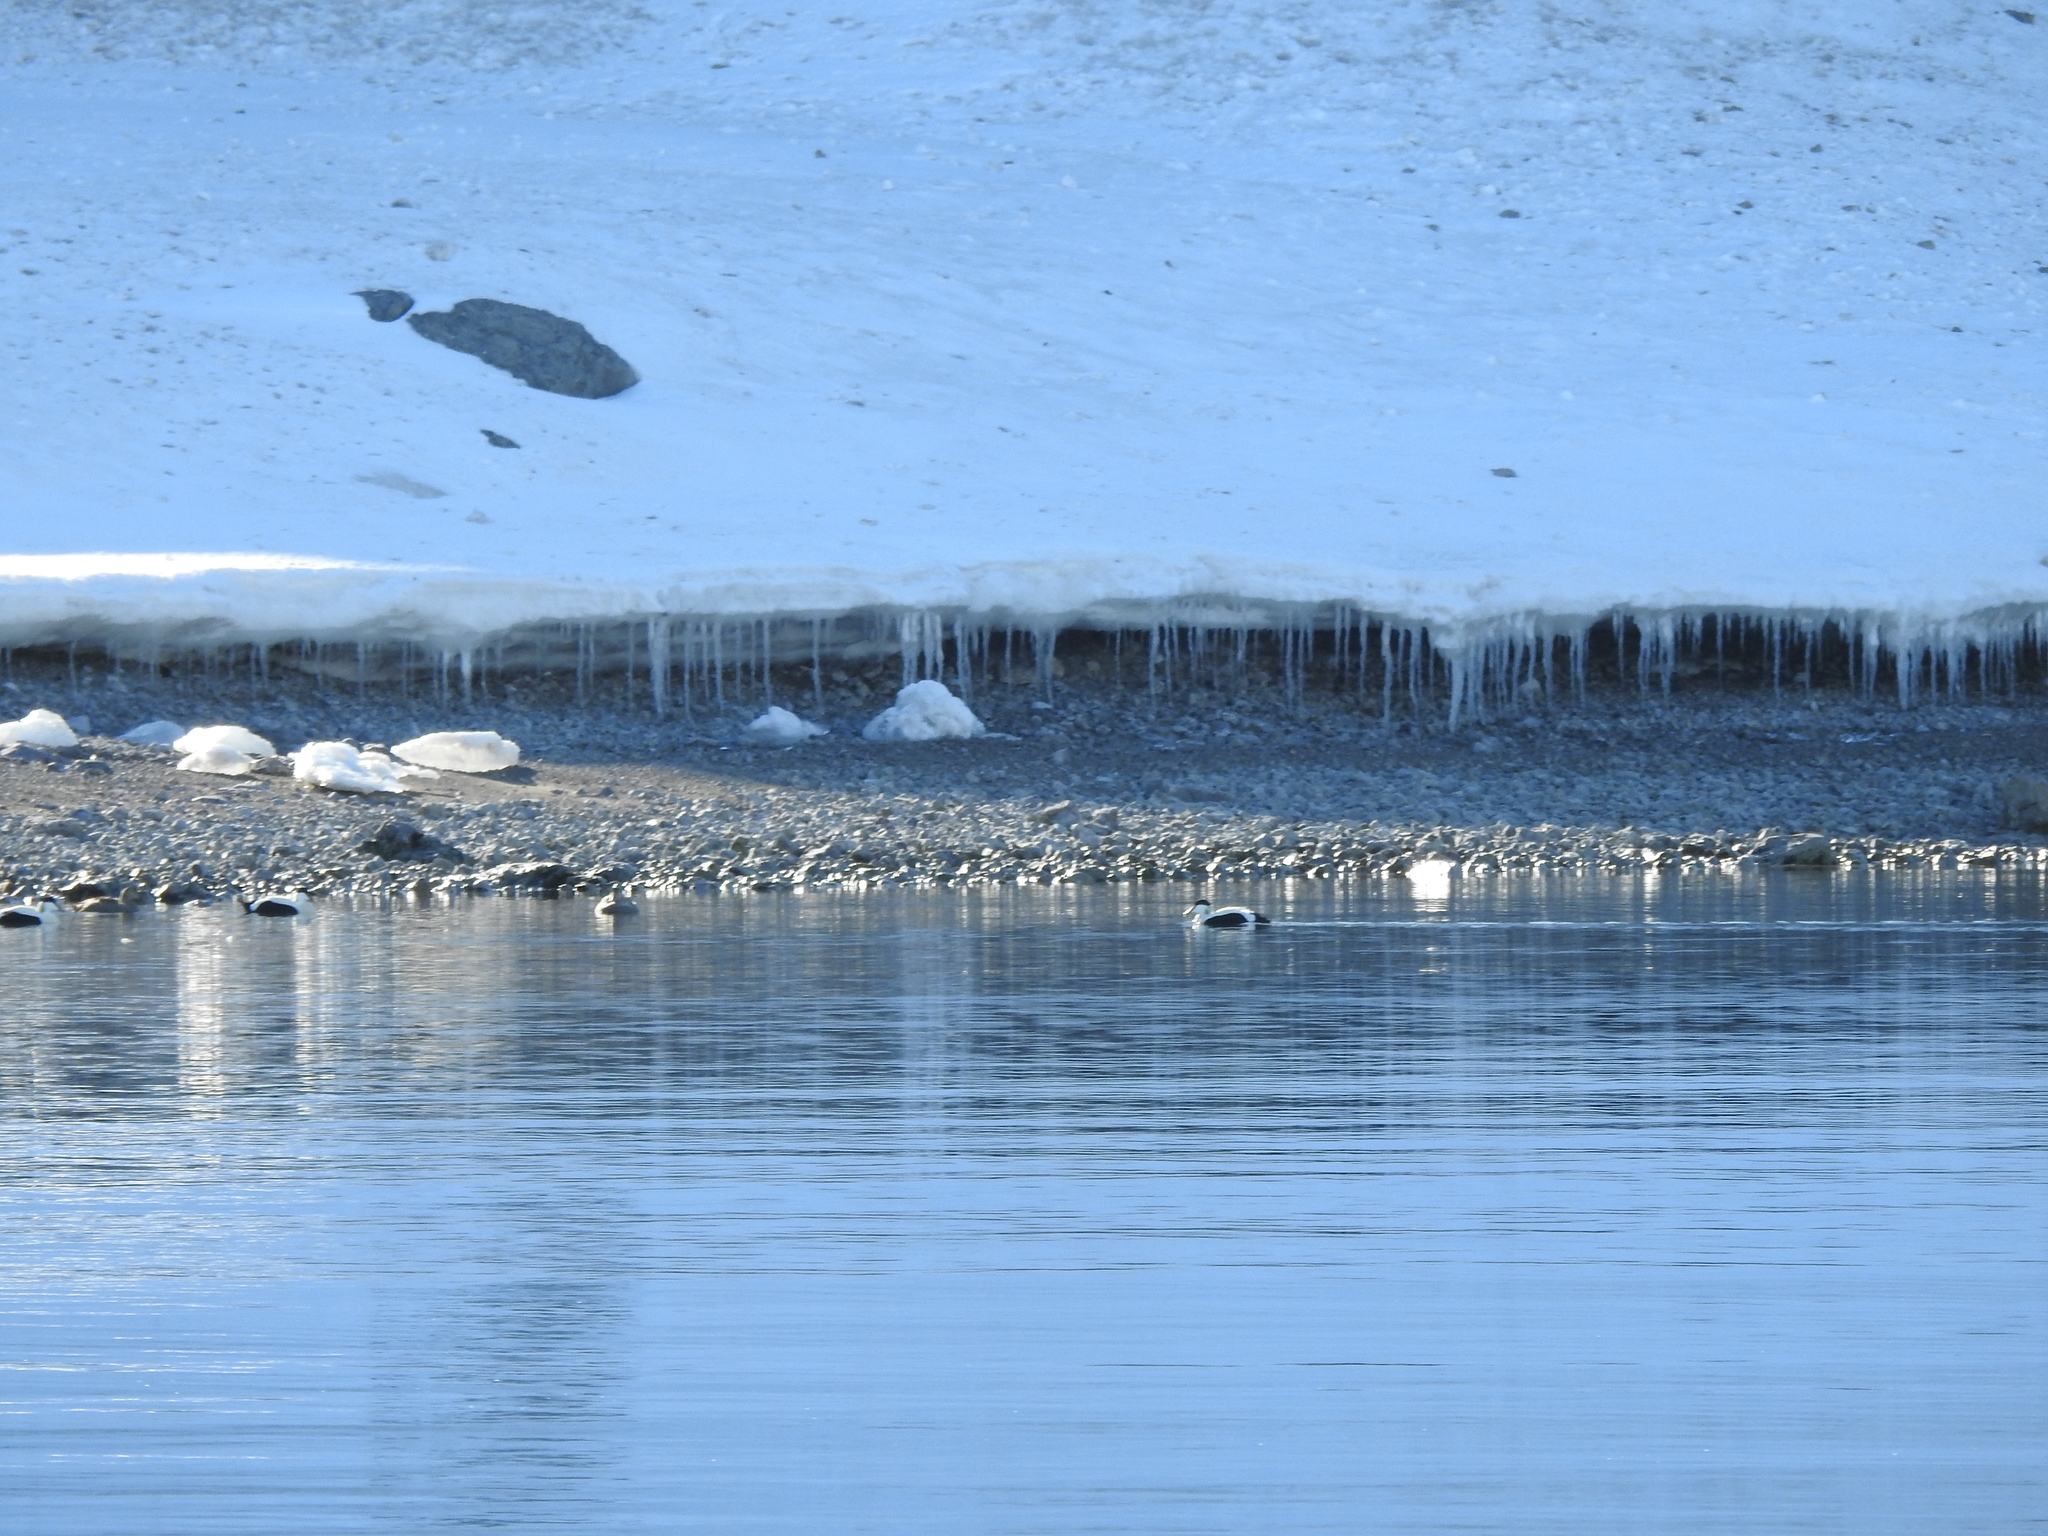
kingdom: Animalia
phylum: Chordata
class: Aves
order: Anseriformes
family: Anatidae
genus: Somateria
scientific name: Somateria mollissima
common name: Common eider
